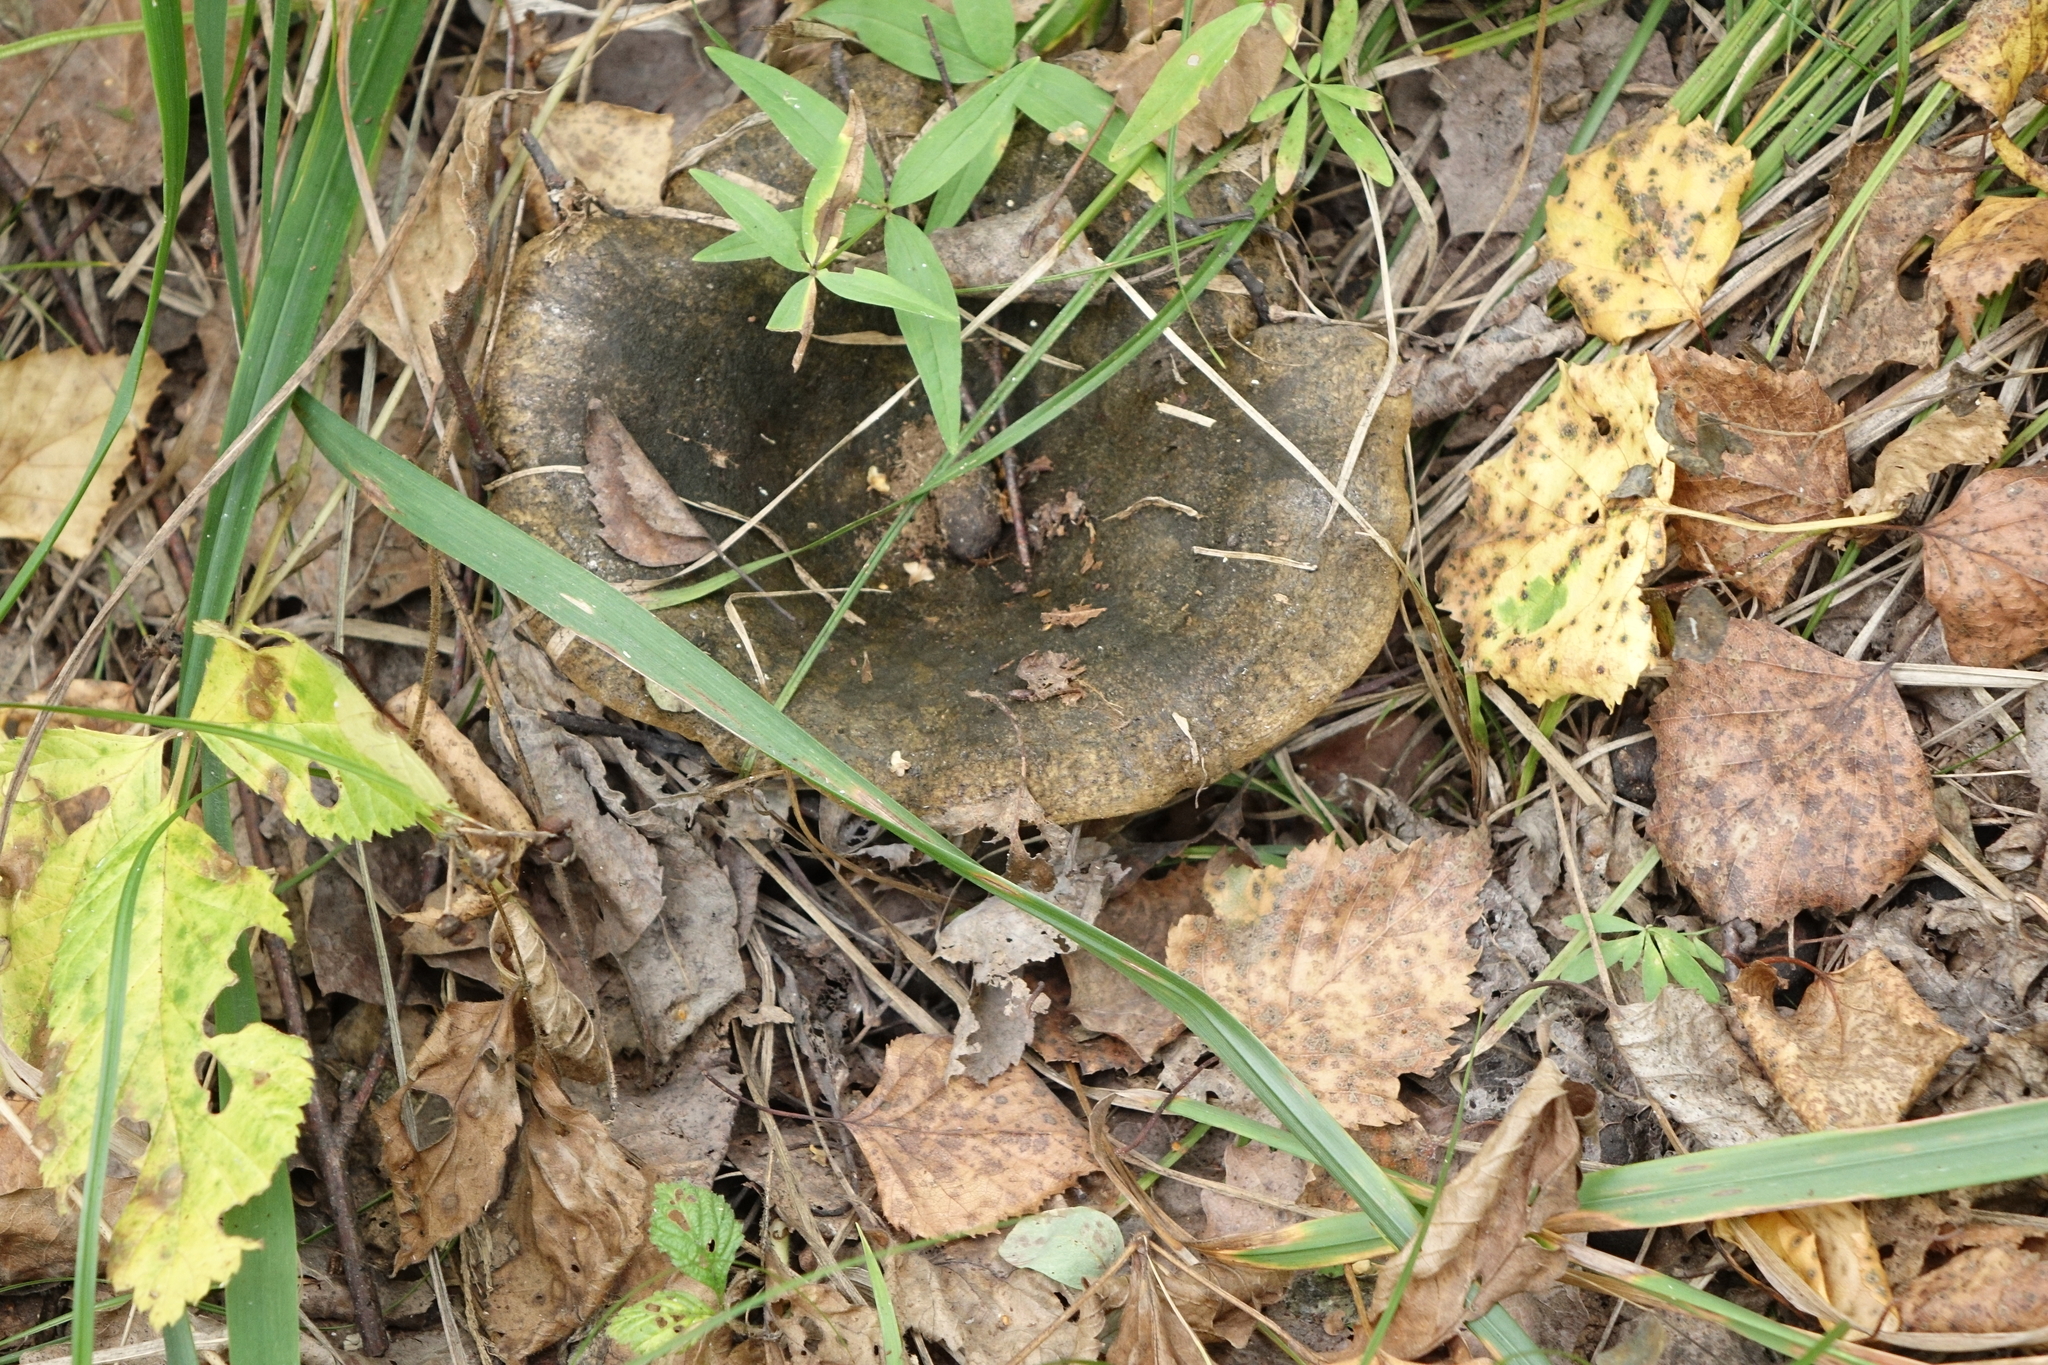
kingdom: Fungi
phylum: Basidiomycota
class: Agaricomycetes
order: Russulales
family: Russulaceae
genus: Lactarius
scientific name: Lactarius turpis
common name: Ugly milk-cap
